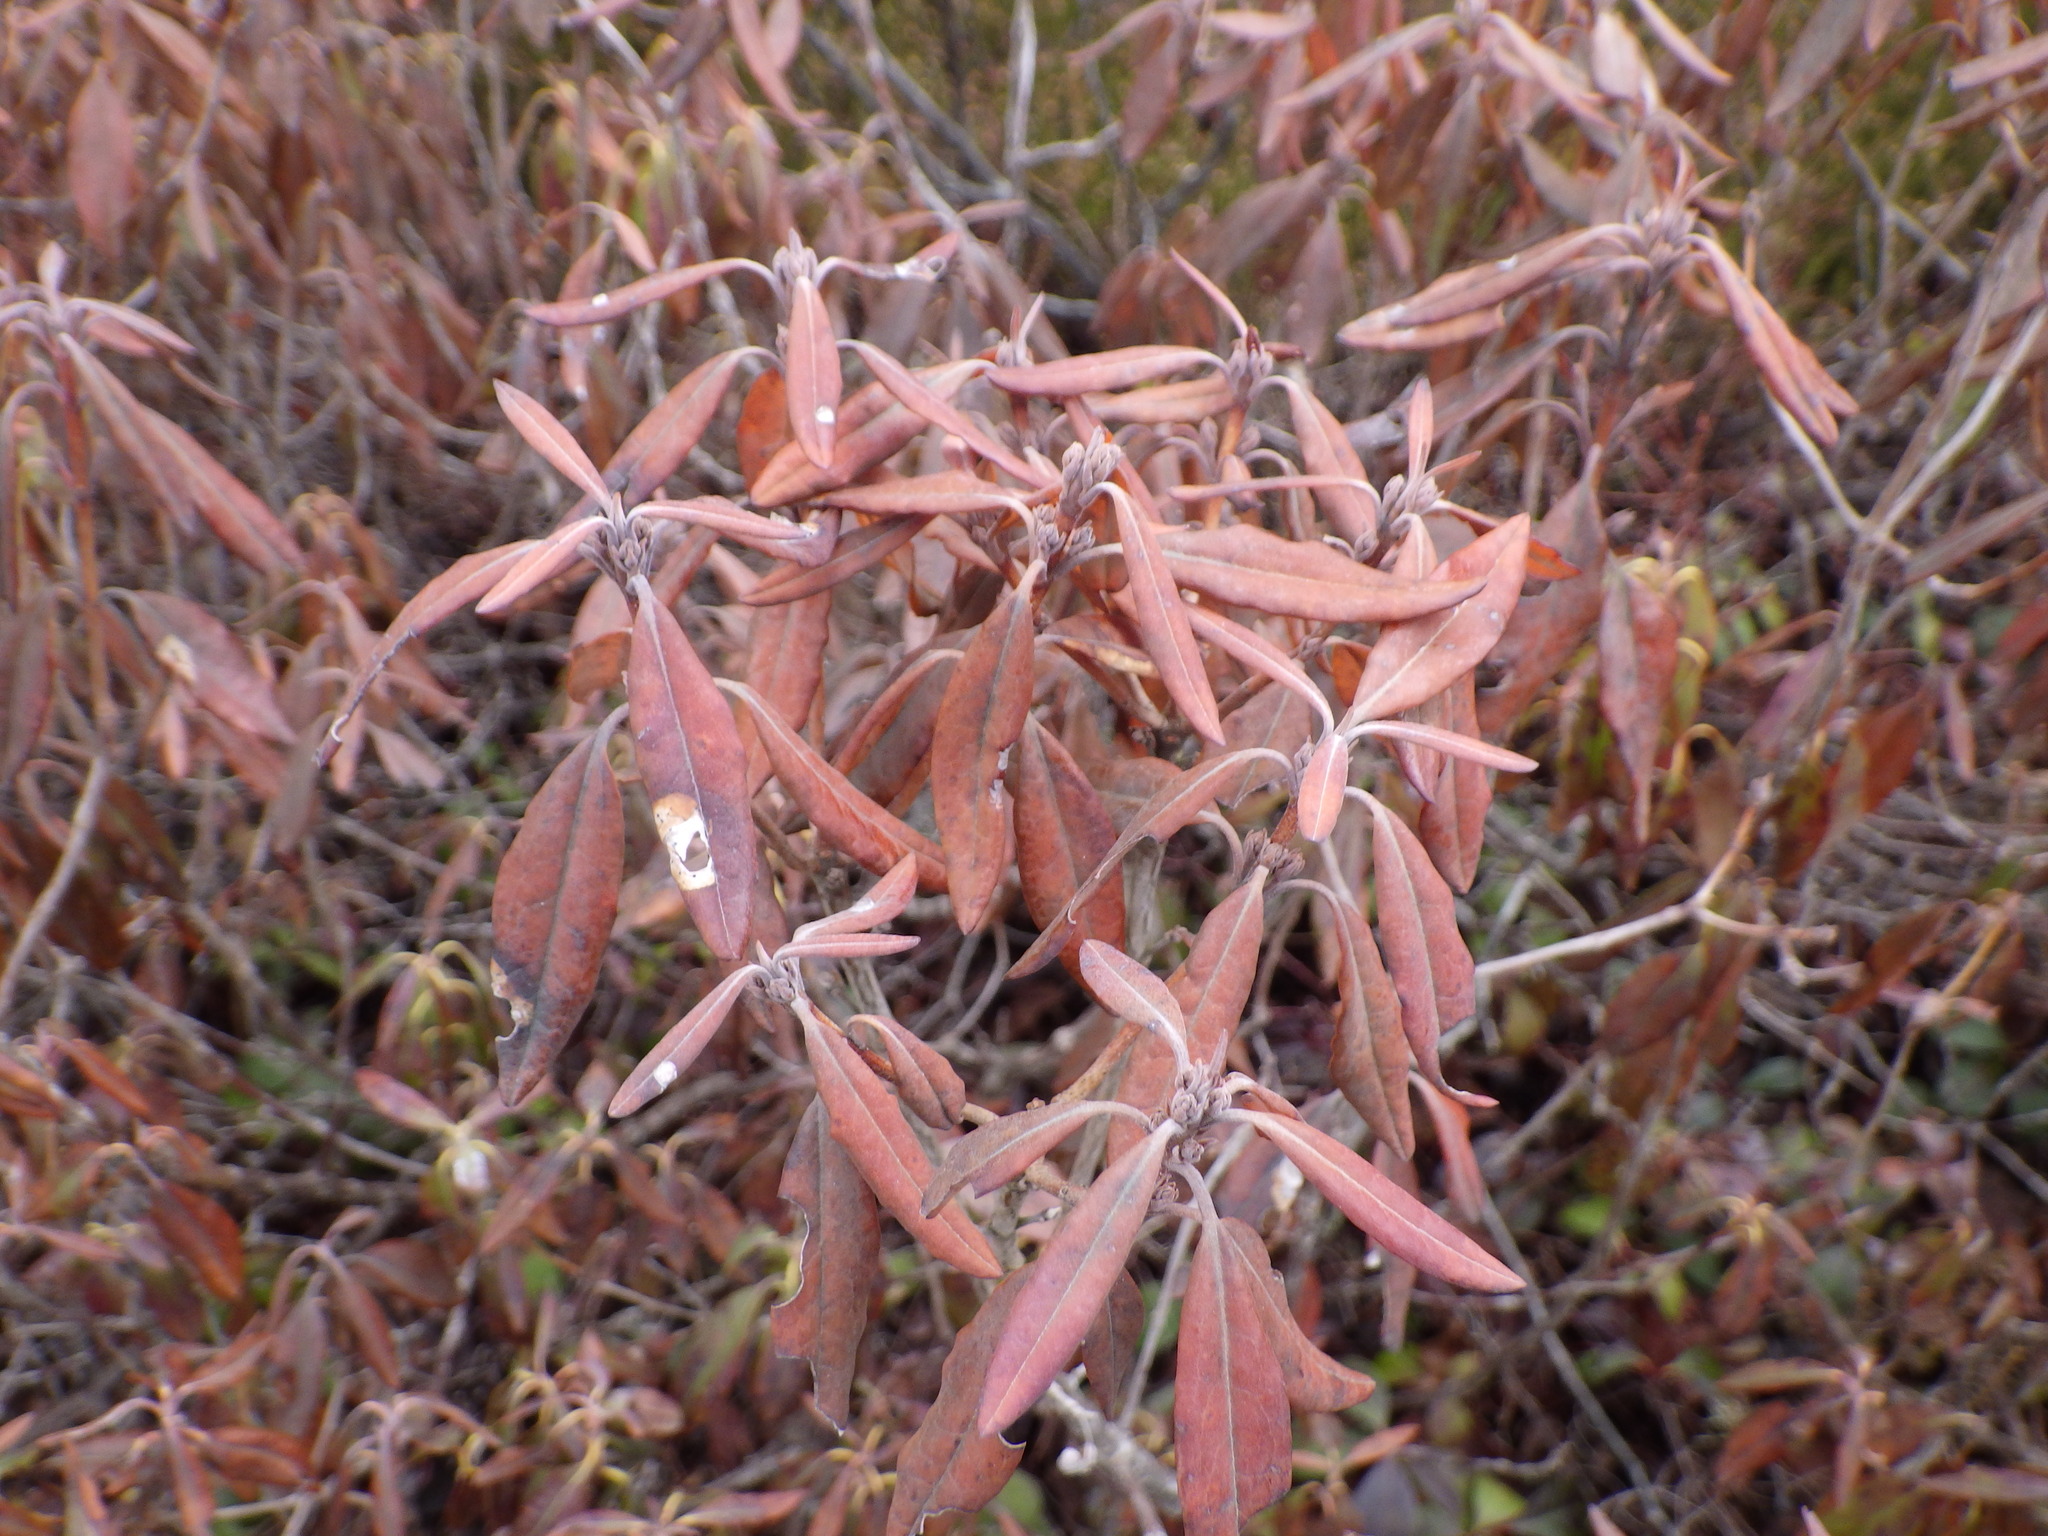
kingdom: Plantae
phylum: Tracheophyta
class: Magnoliopsida
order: Ericales
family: Ericaceae
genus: Kalmia
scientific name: Kalmia angustifolia
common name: Sheep-laurel
